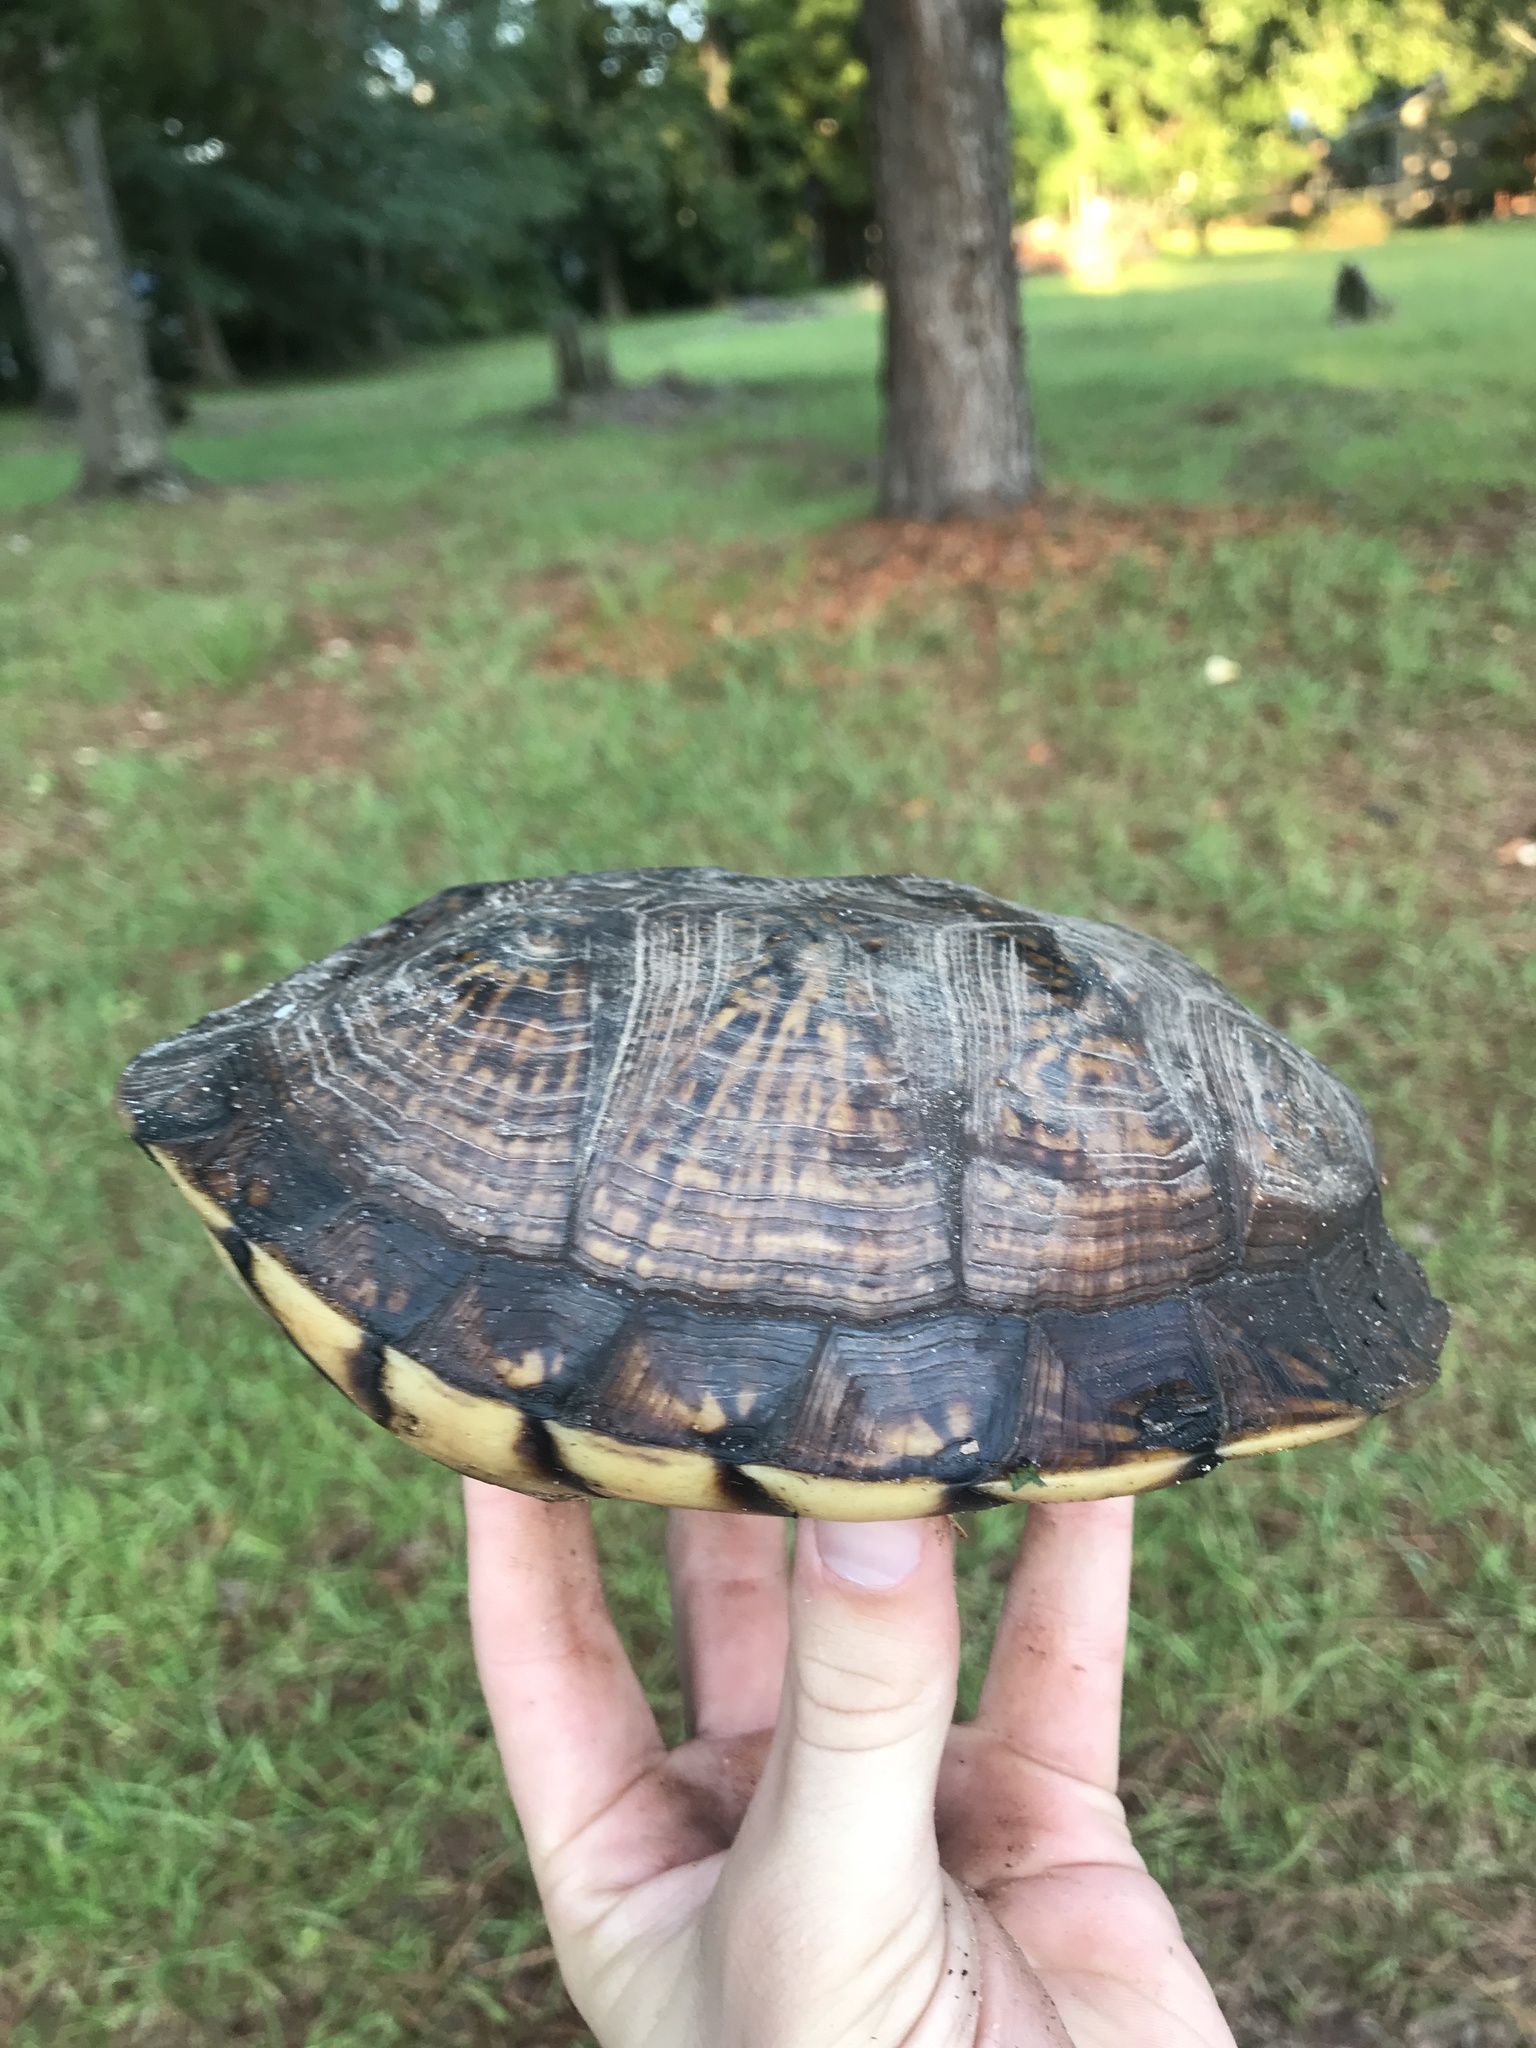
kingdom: Animalia
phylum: Chordata
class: Testudines
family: Emydidae
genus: Terrapene
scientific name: Terrapene carolina
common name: Common box turtle
